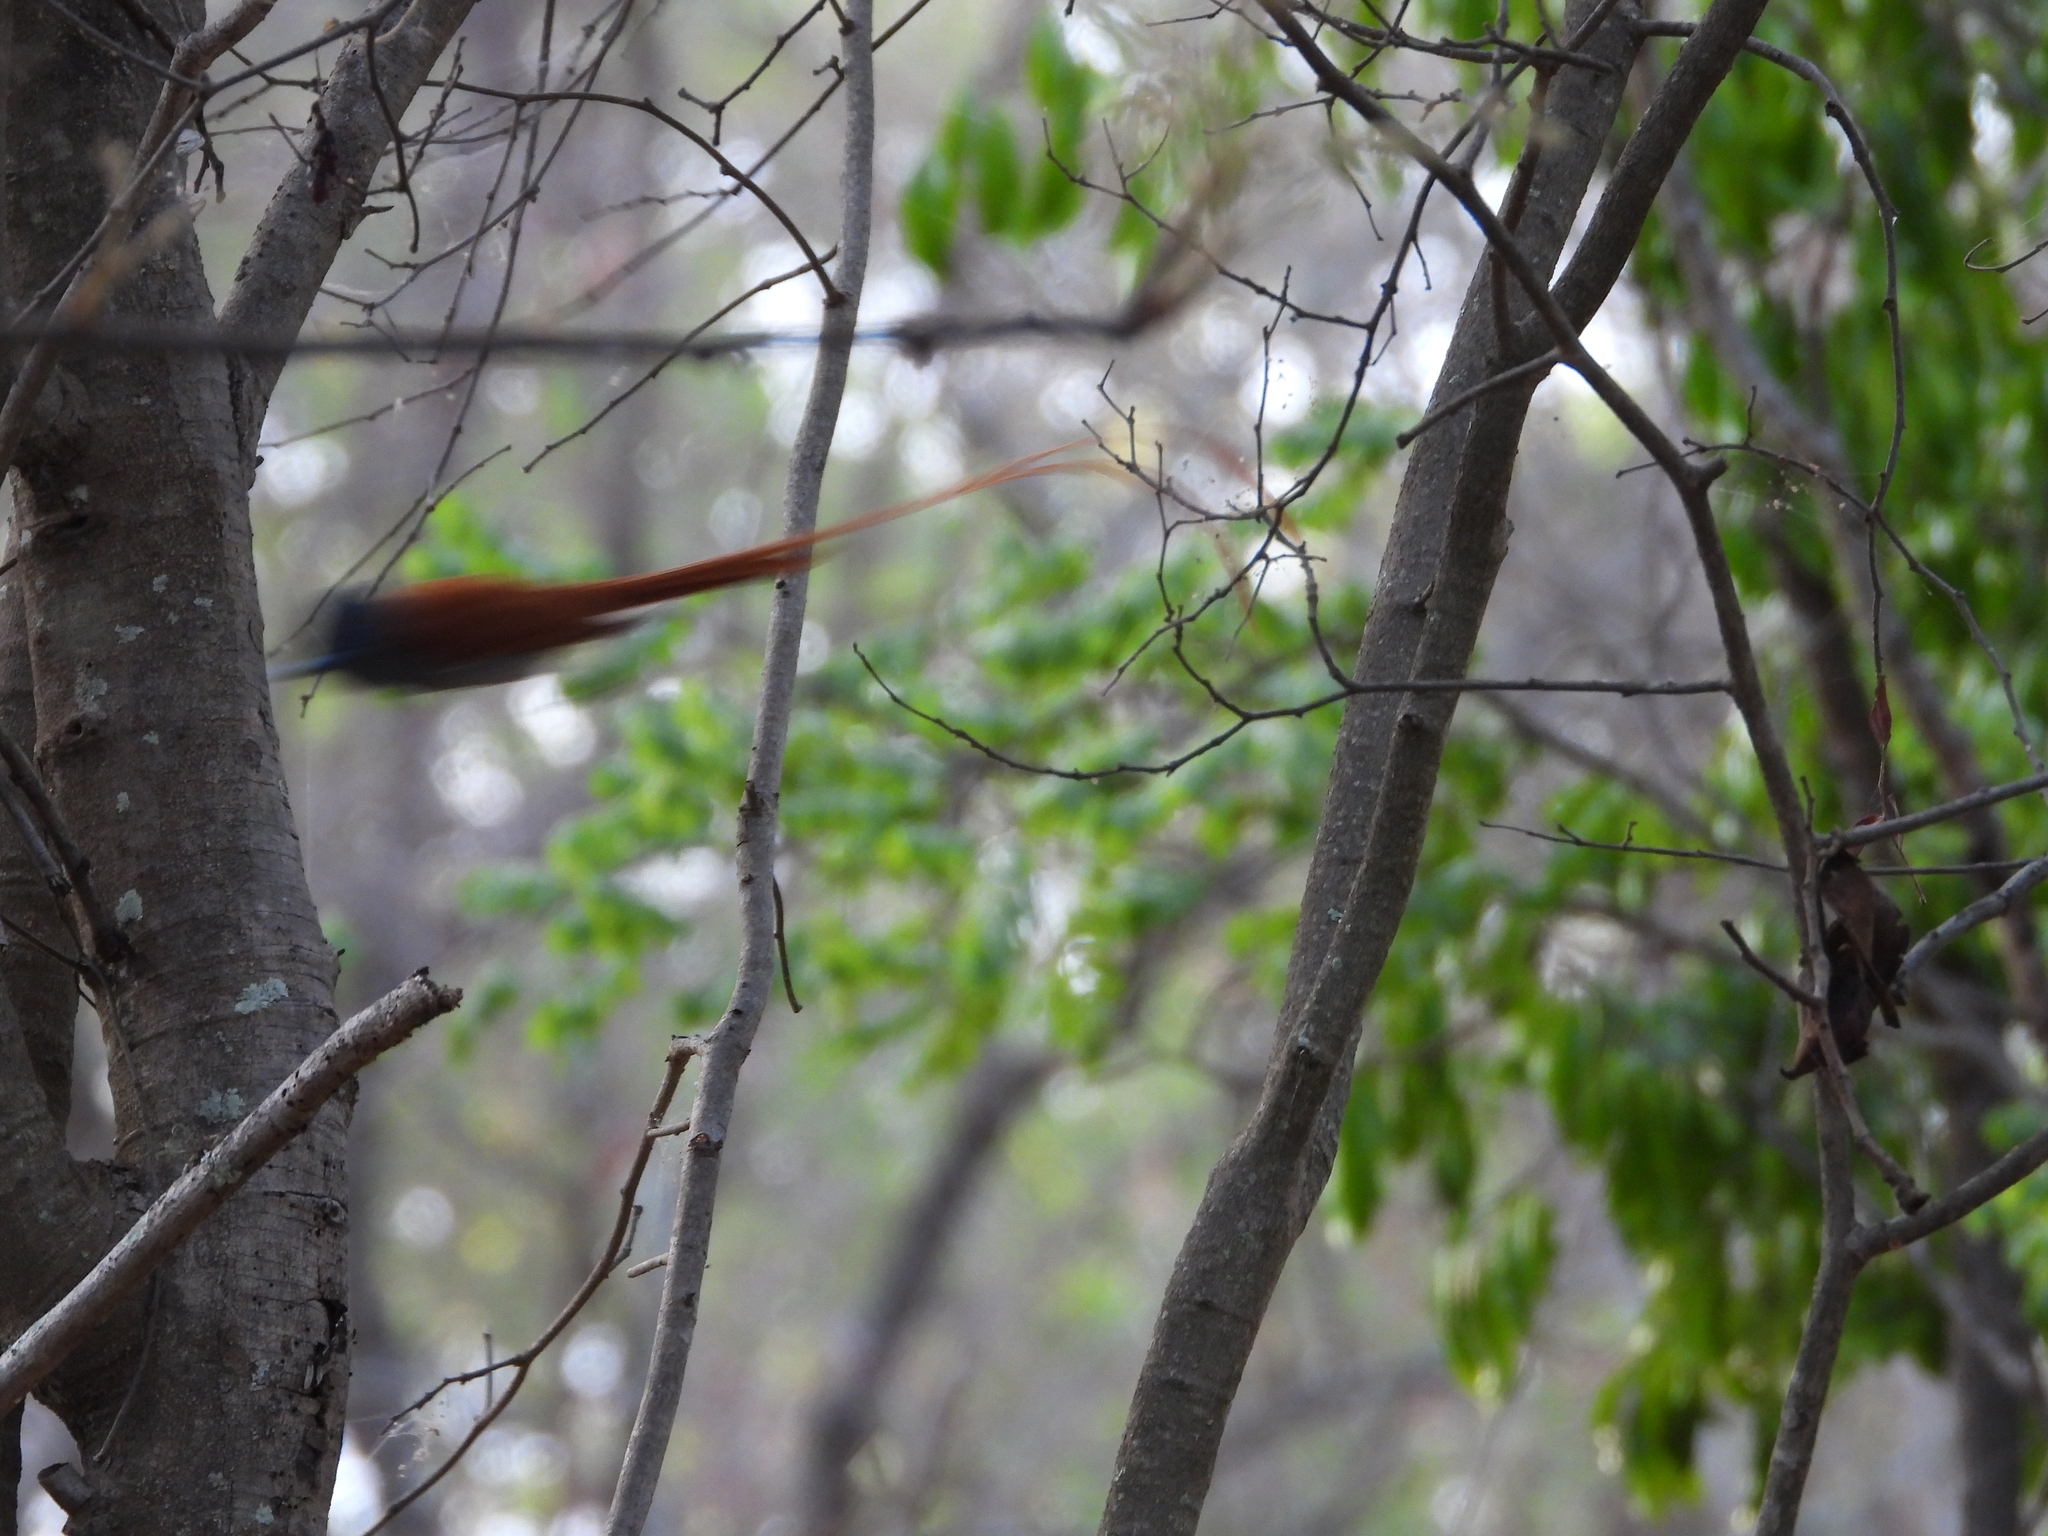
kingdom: Animalia
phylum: Chordata
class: Aves
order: Passeriformes
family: Monarchidae
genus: Terpsiphone
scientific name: Terpsiphone viridis
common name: African paradise flycatcher
